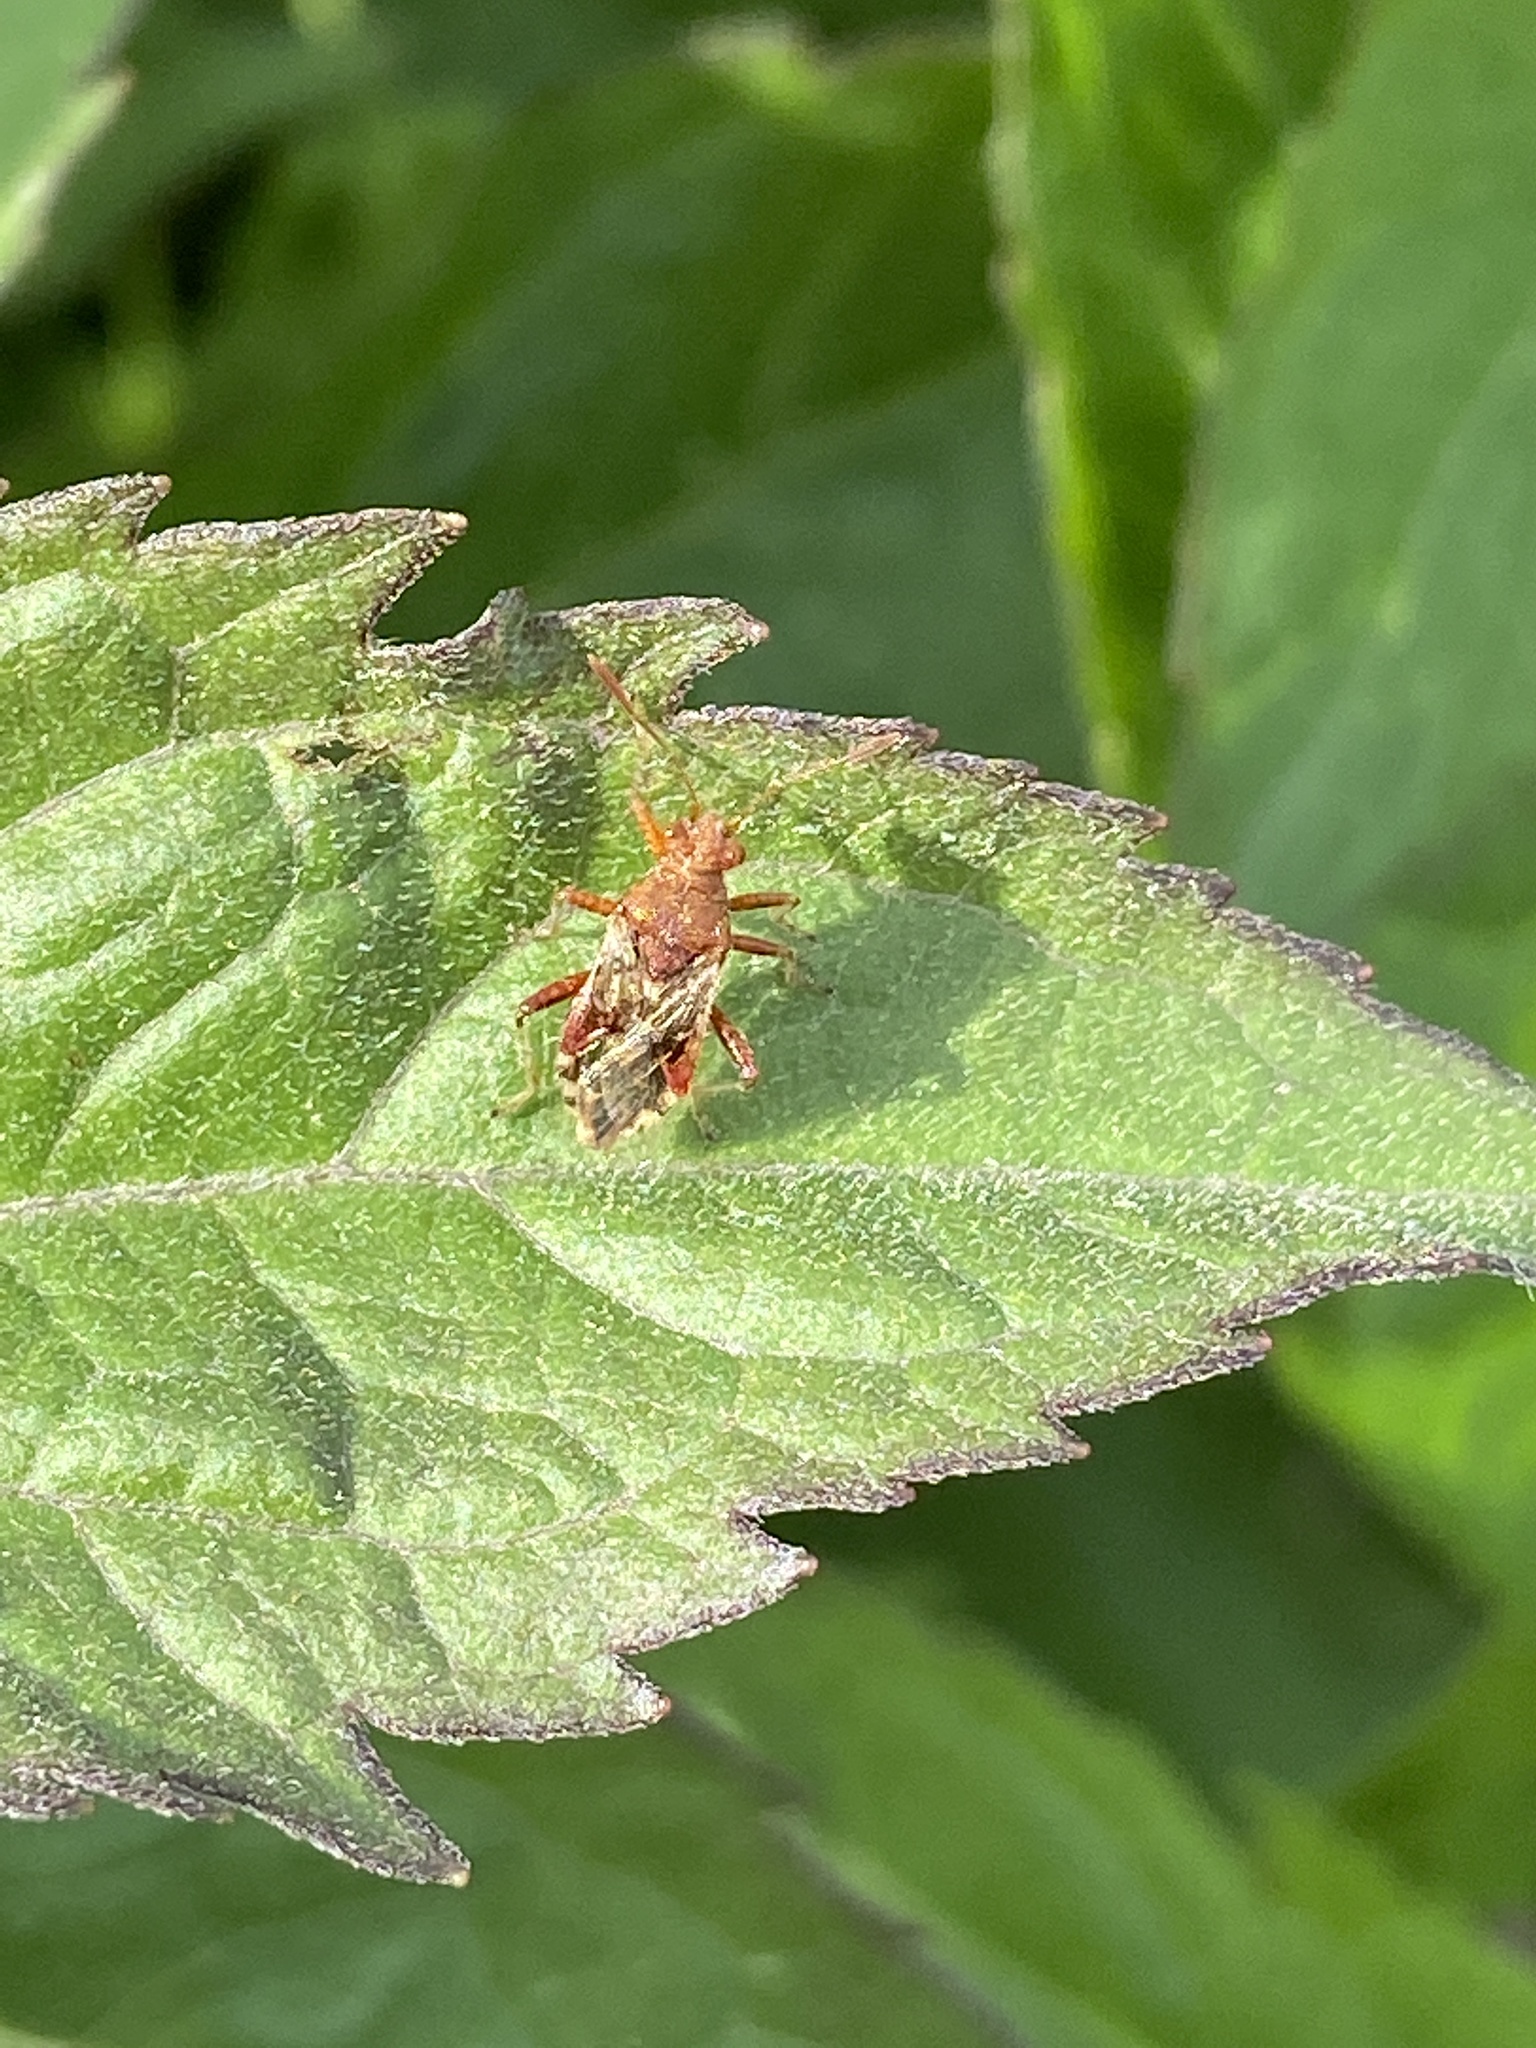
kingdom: Animalia
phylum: Arthropoda
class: Insecta
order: Hemiptera
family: Rhopalidae
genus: Rhopalus
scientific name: Rhopalus subrufus
